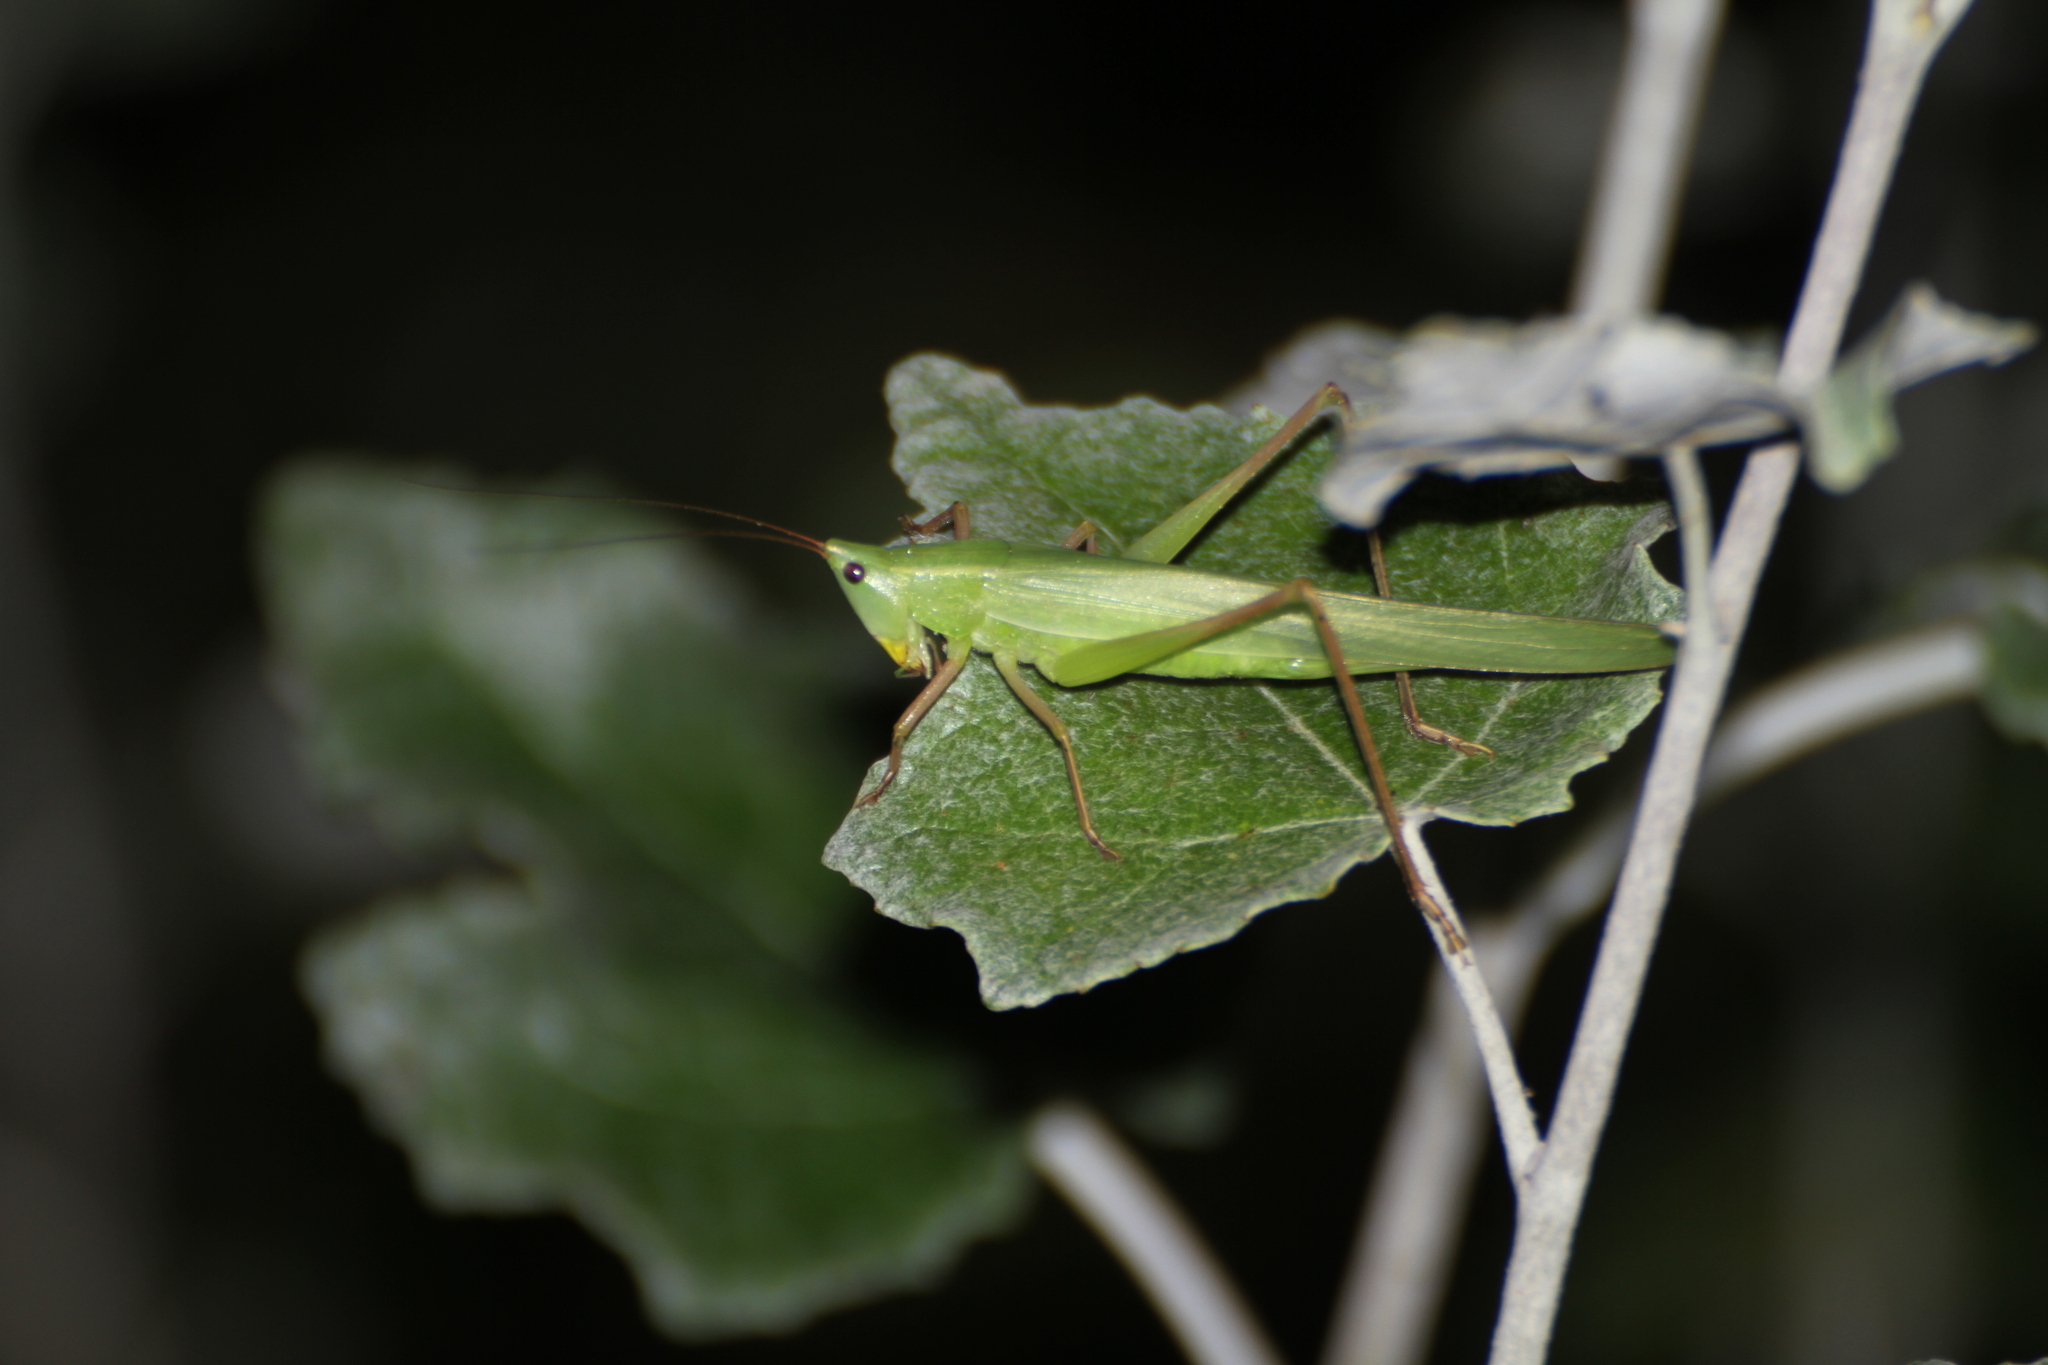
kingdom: Animalia
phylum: Arthropoda
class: Insecta
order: Orthoptera
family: Tettigoniidae
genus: Ruspolia
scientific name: Ruspolia nitidula
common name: Large conehead
